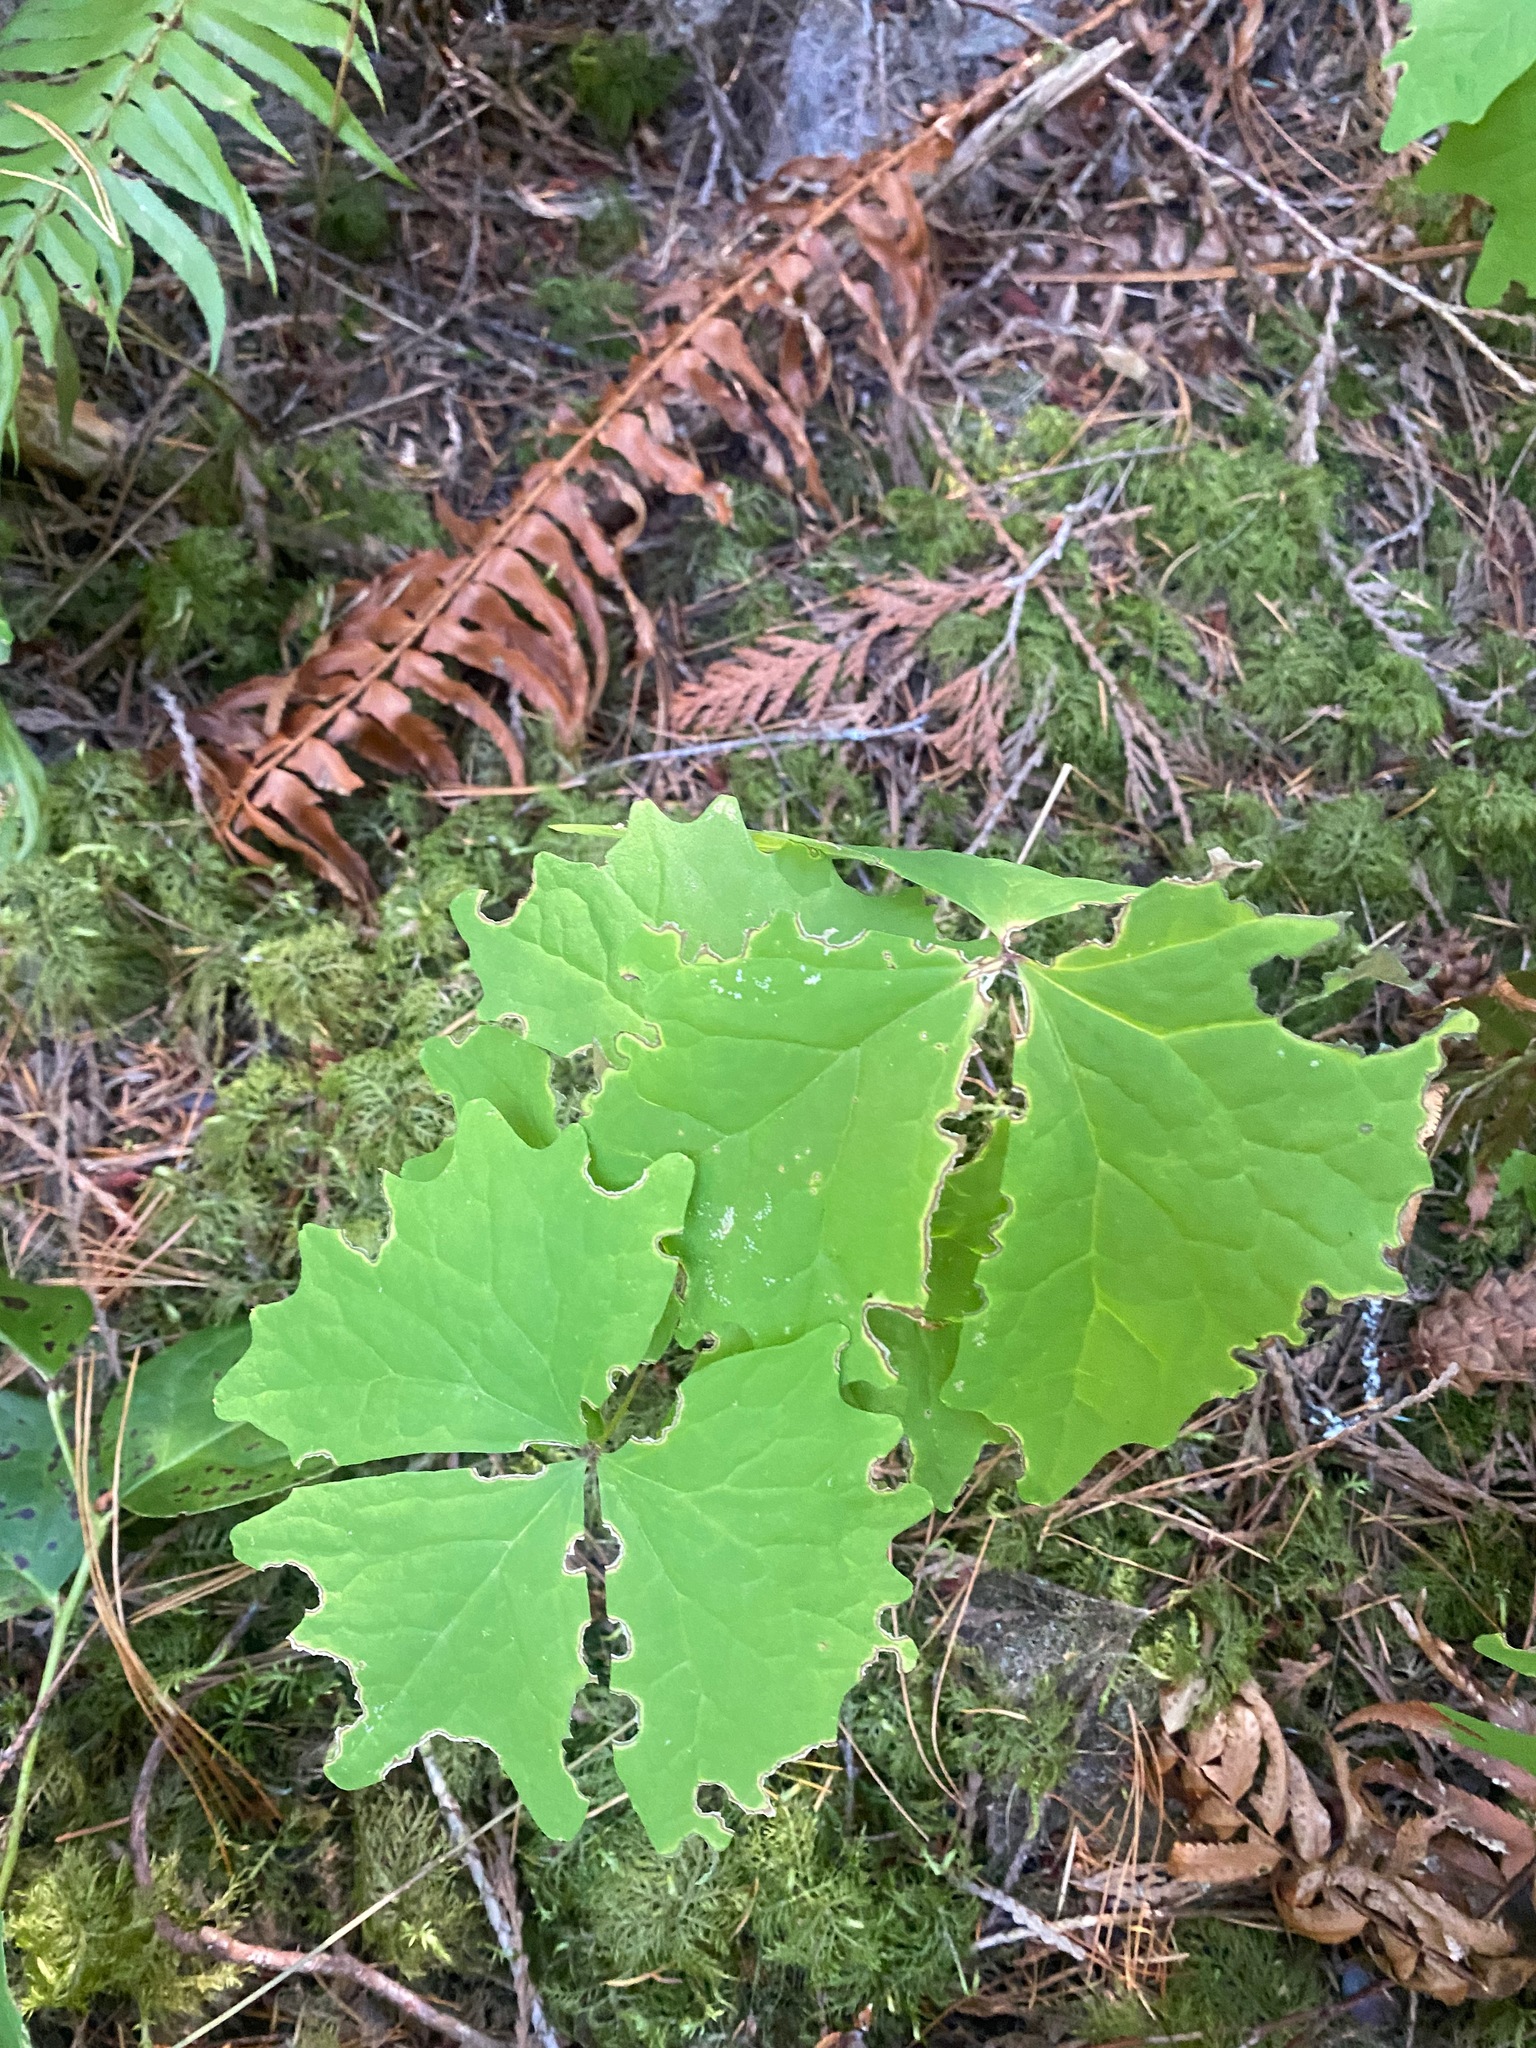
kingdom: Plantae
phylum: Tracheophyta
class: Magnoliopsida
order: Ranunculales
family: Berberidaceae
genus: Achlys
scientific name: Achlys triphylla
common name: Vanilla-leaf
